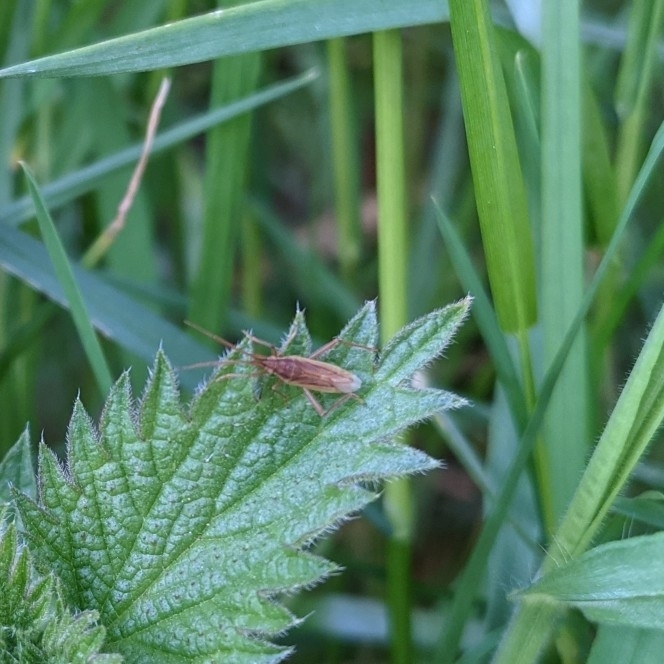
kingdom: Animalia
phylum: Arthropoda
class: Insecta
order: Hemiptera
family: Miridae
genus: Stenodema
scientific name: Stenodema holsata
